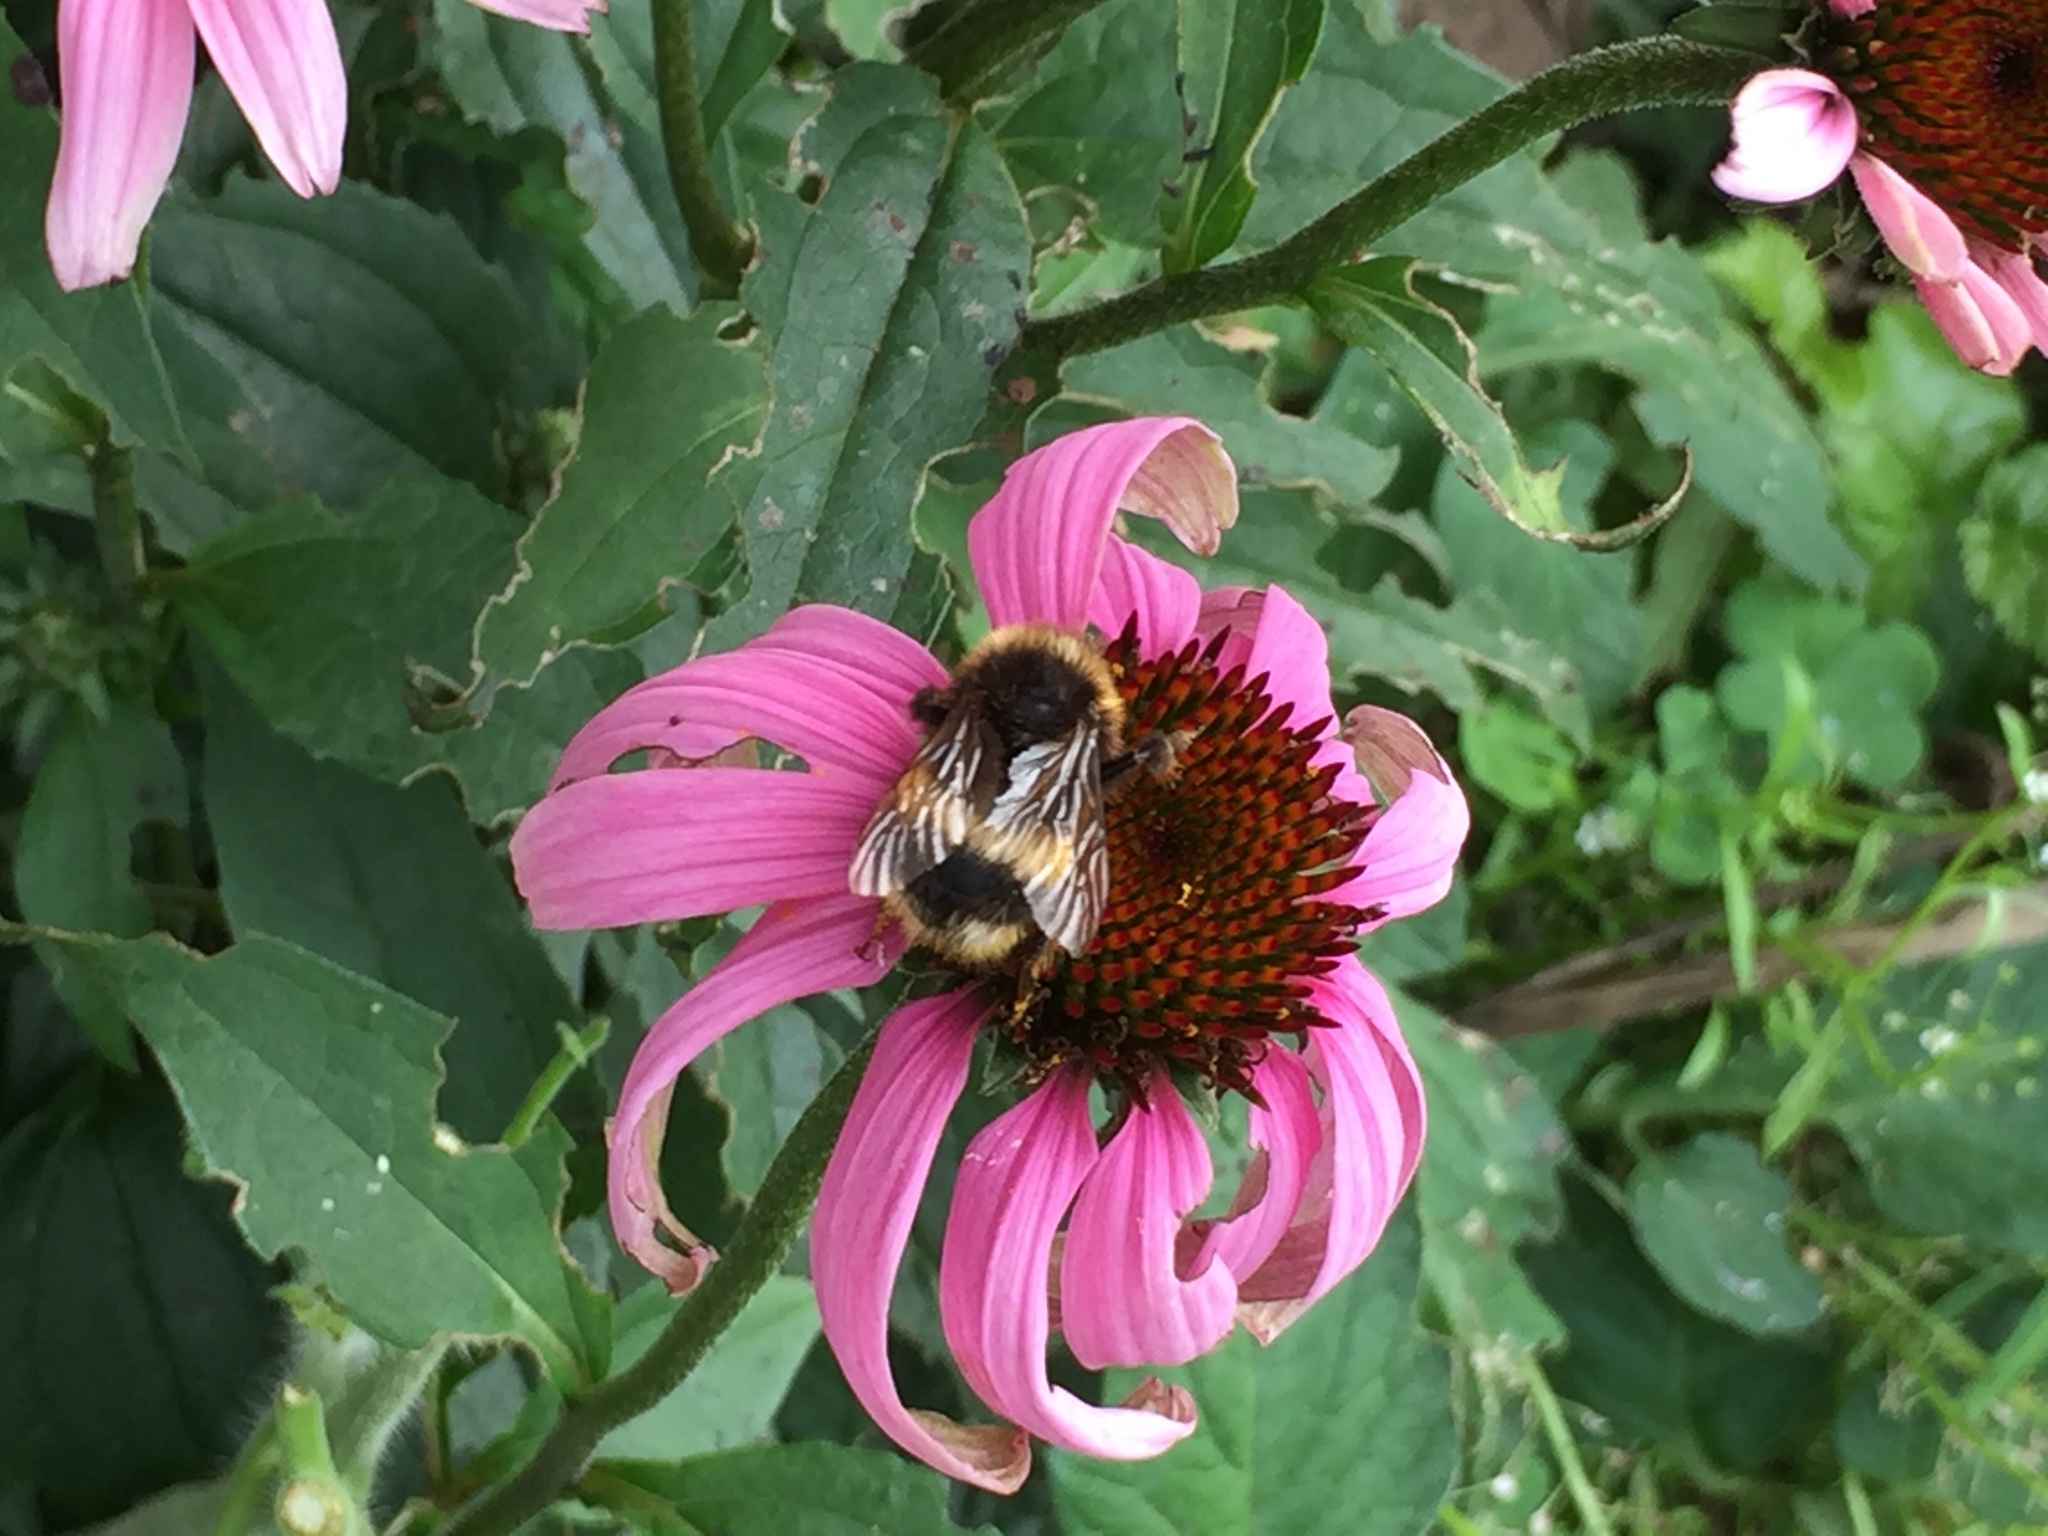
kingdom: Animalia
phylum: Arthropoda
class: Insecta
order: Hymenoptera
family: Apidae
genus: Bombus
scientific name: Bombus terrestris
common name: Buff-tailed bumblebee
